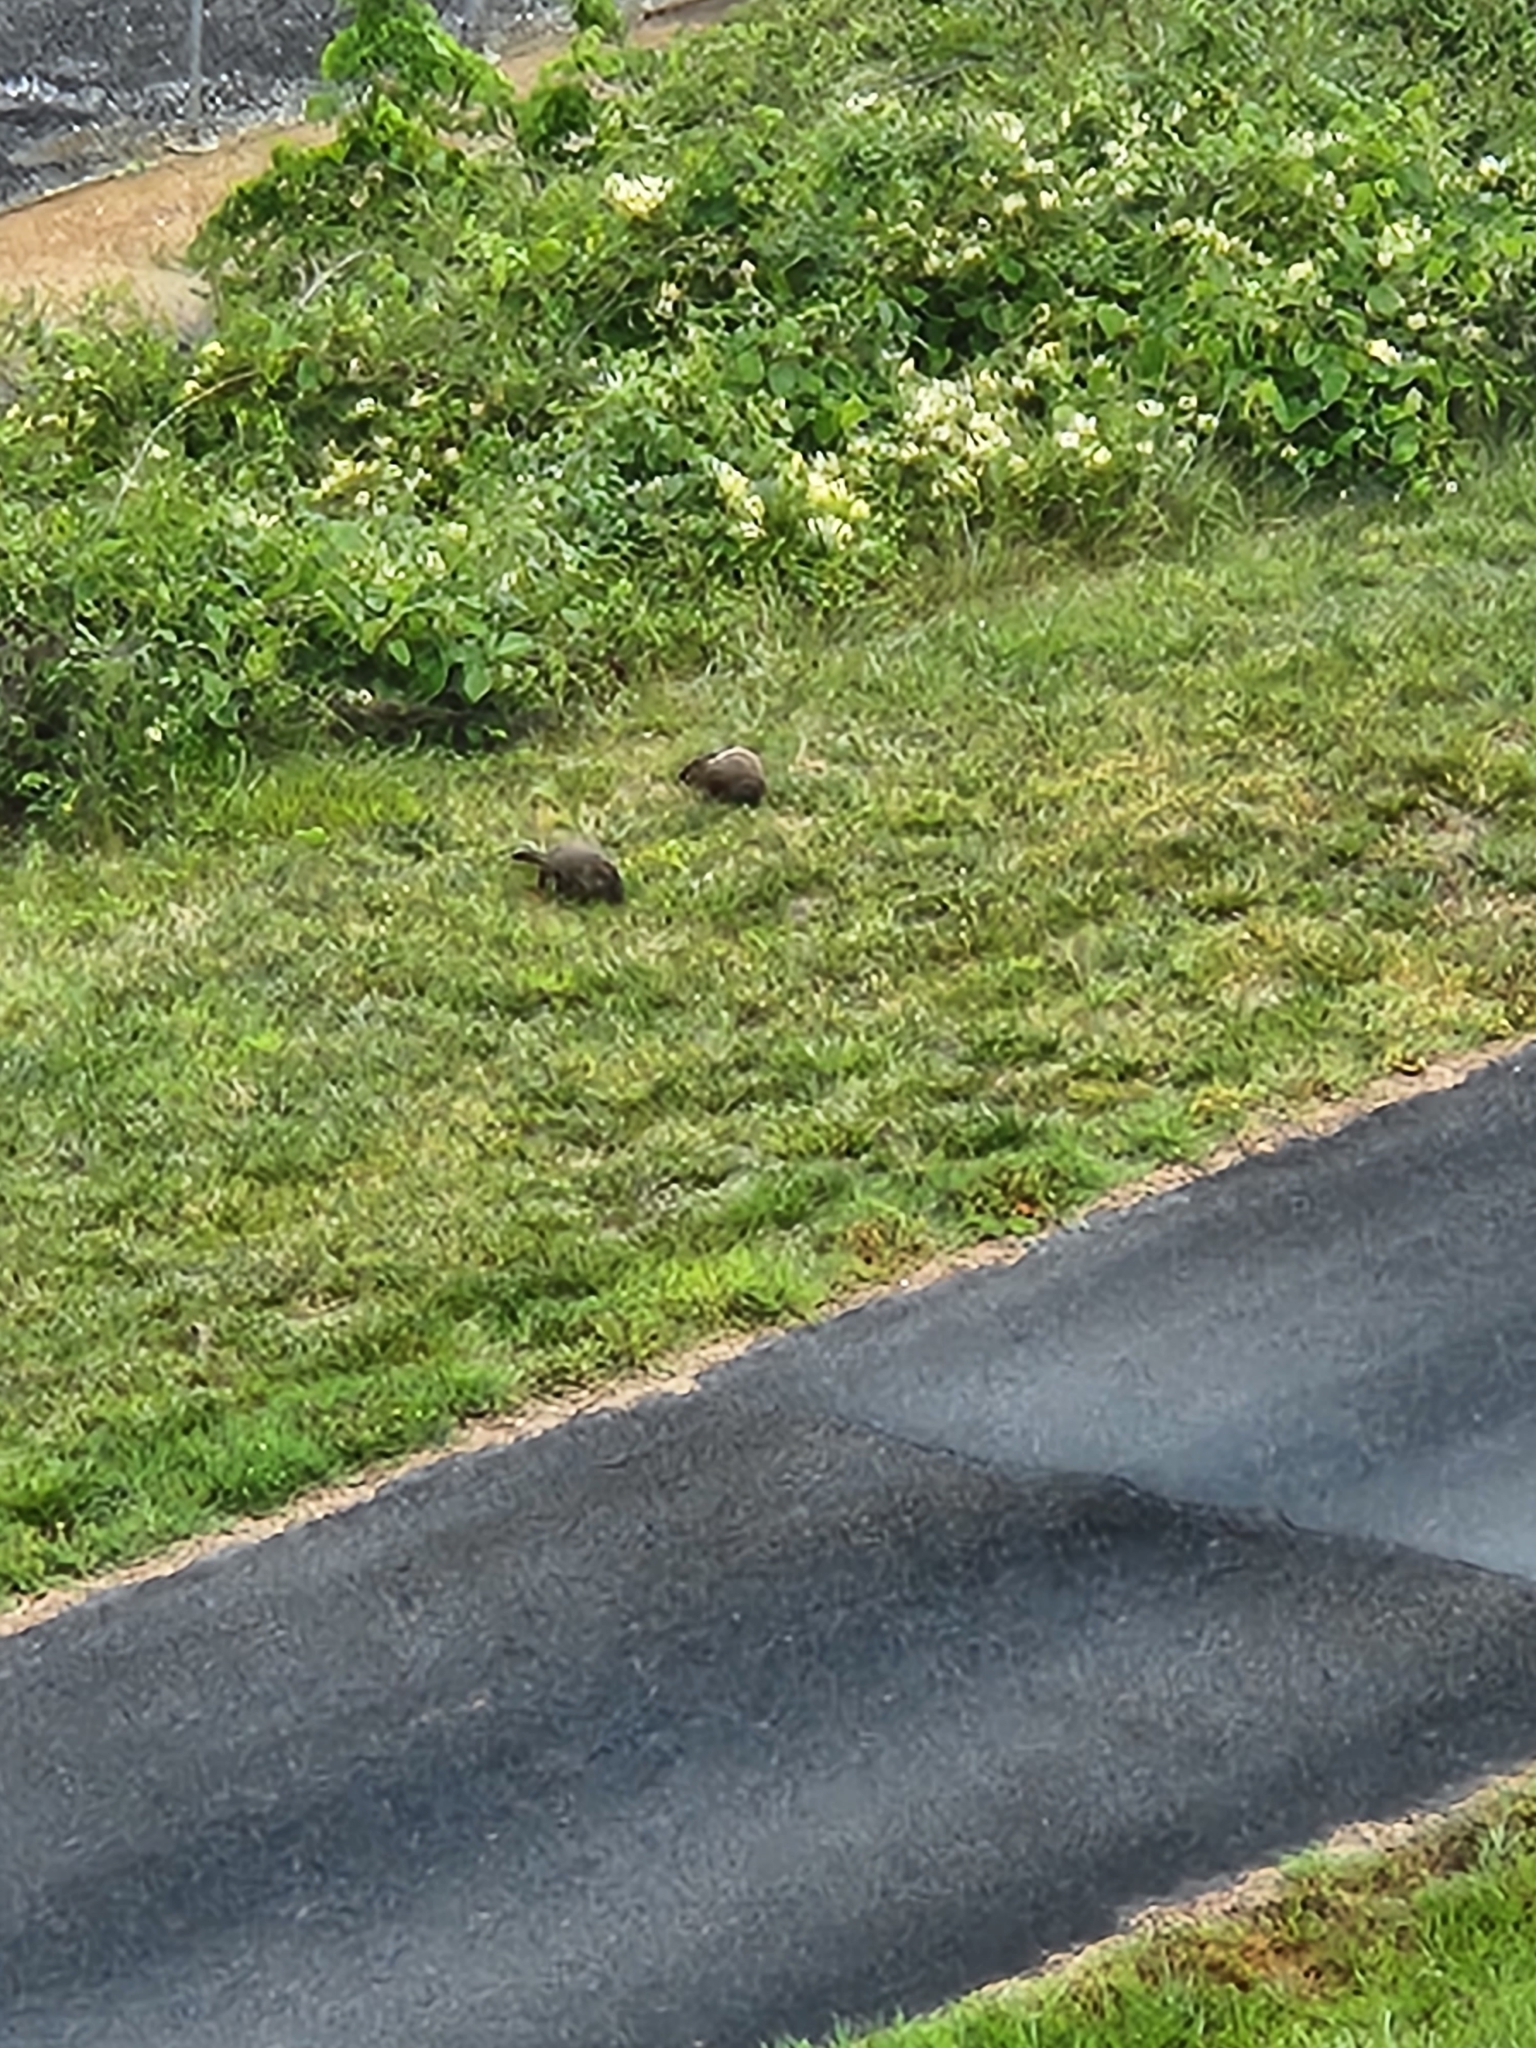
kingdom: Animalia
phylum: Chordata
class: Mammalia
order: Rodentia
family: Sciuridae
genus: Marmota
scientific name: Marmota monax
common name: Groundhog
